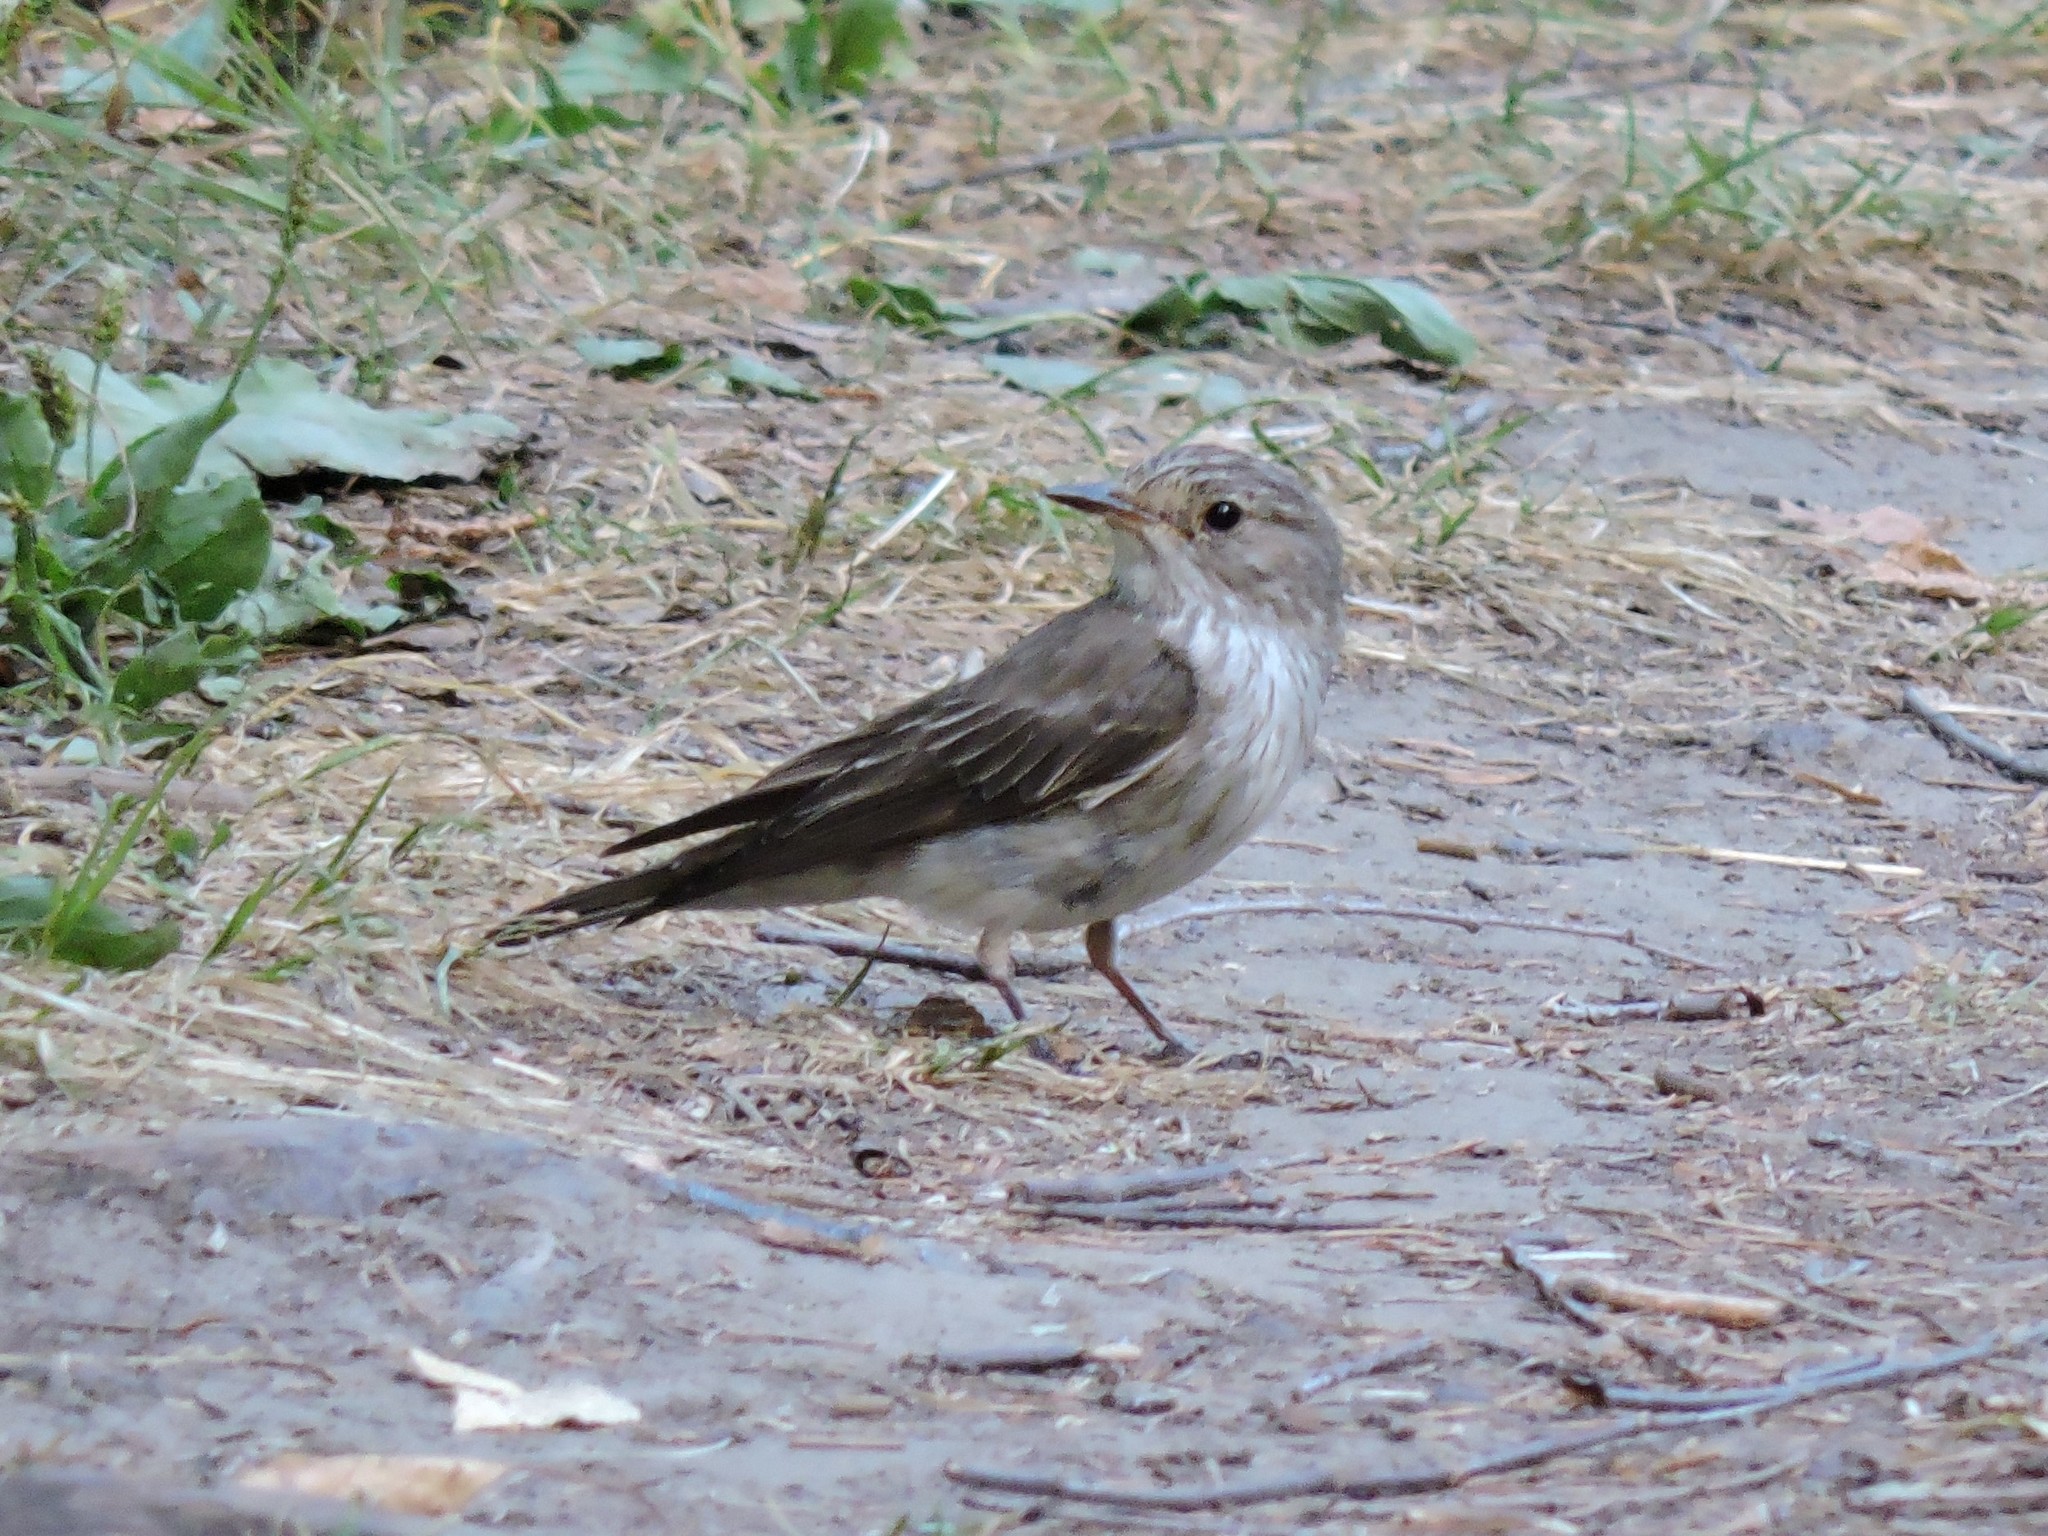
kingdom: Animalia
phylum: Chordata
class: Aves
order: Passeriformes
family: Muscicapidae
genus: Muscicapa
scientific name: Muscicapa striata
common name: Spotted flycatcher
